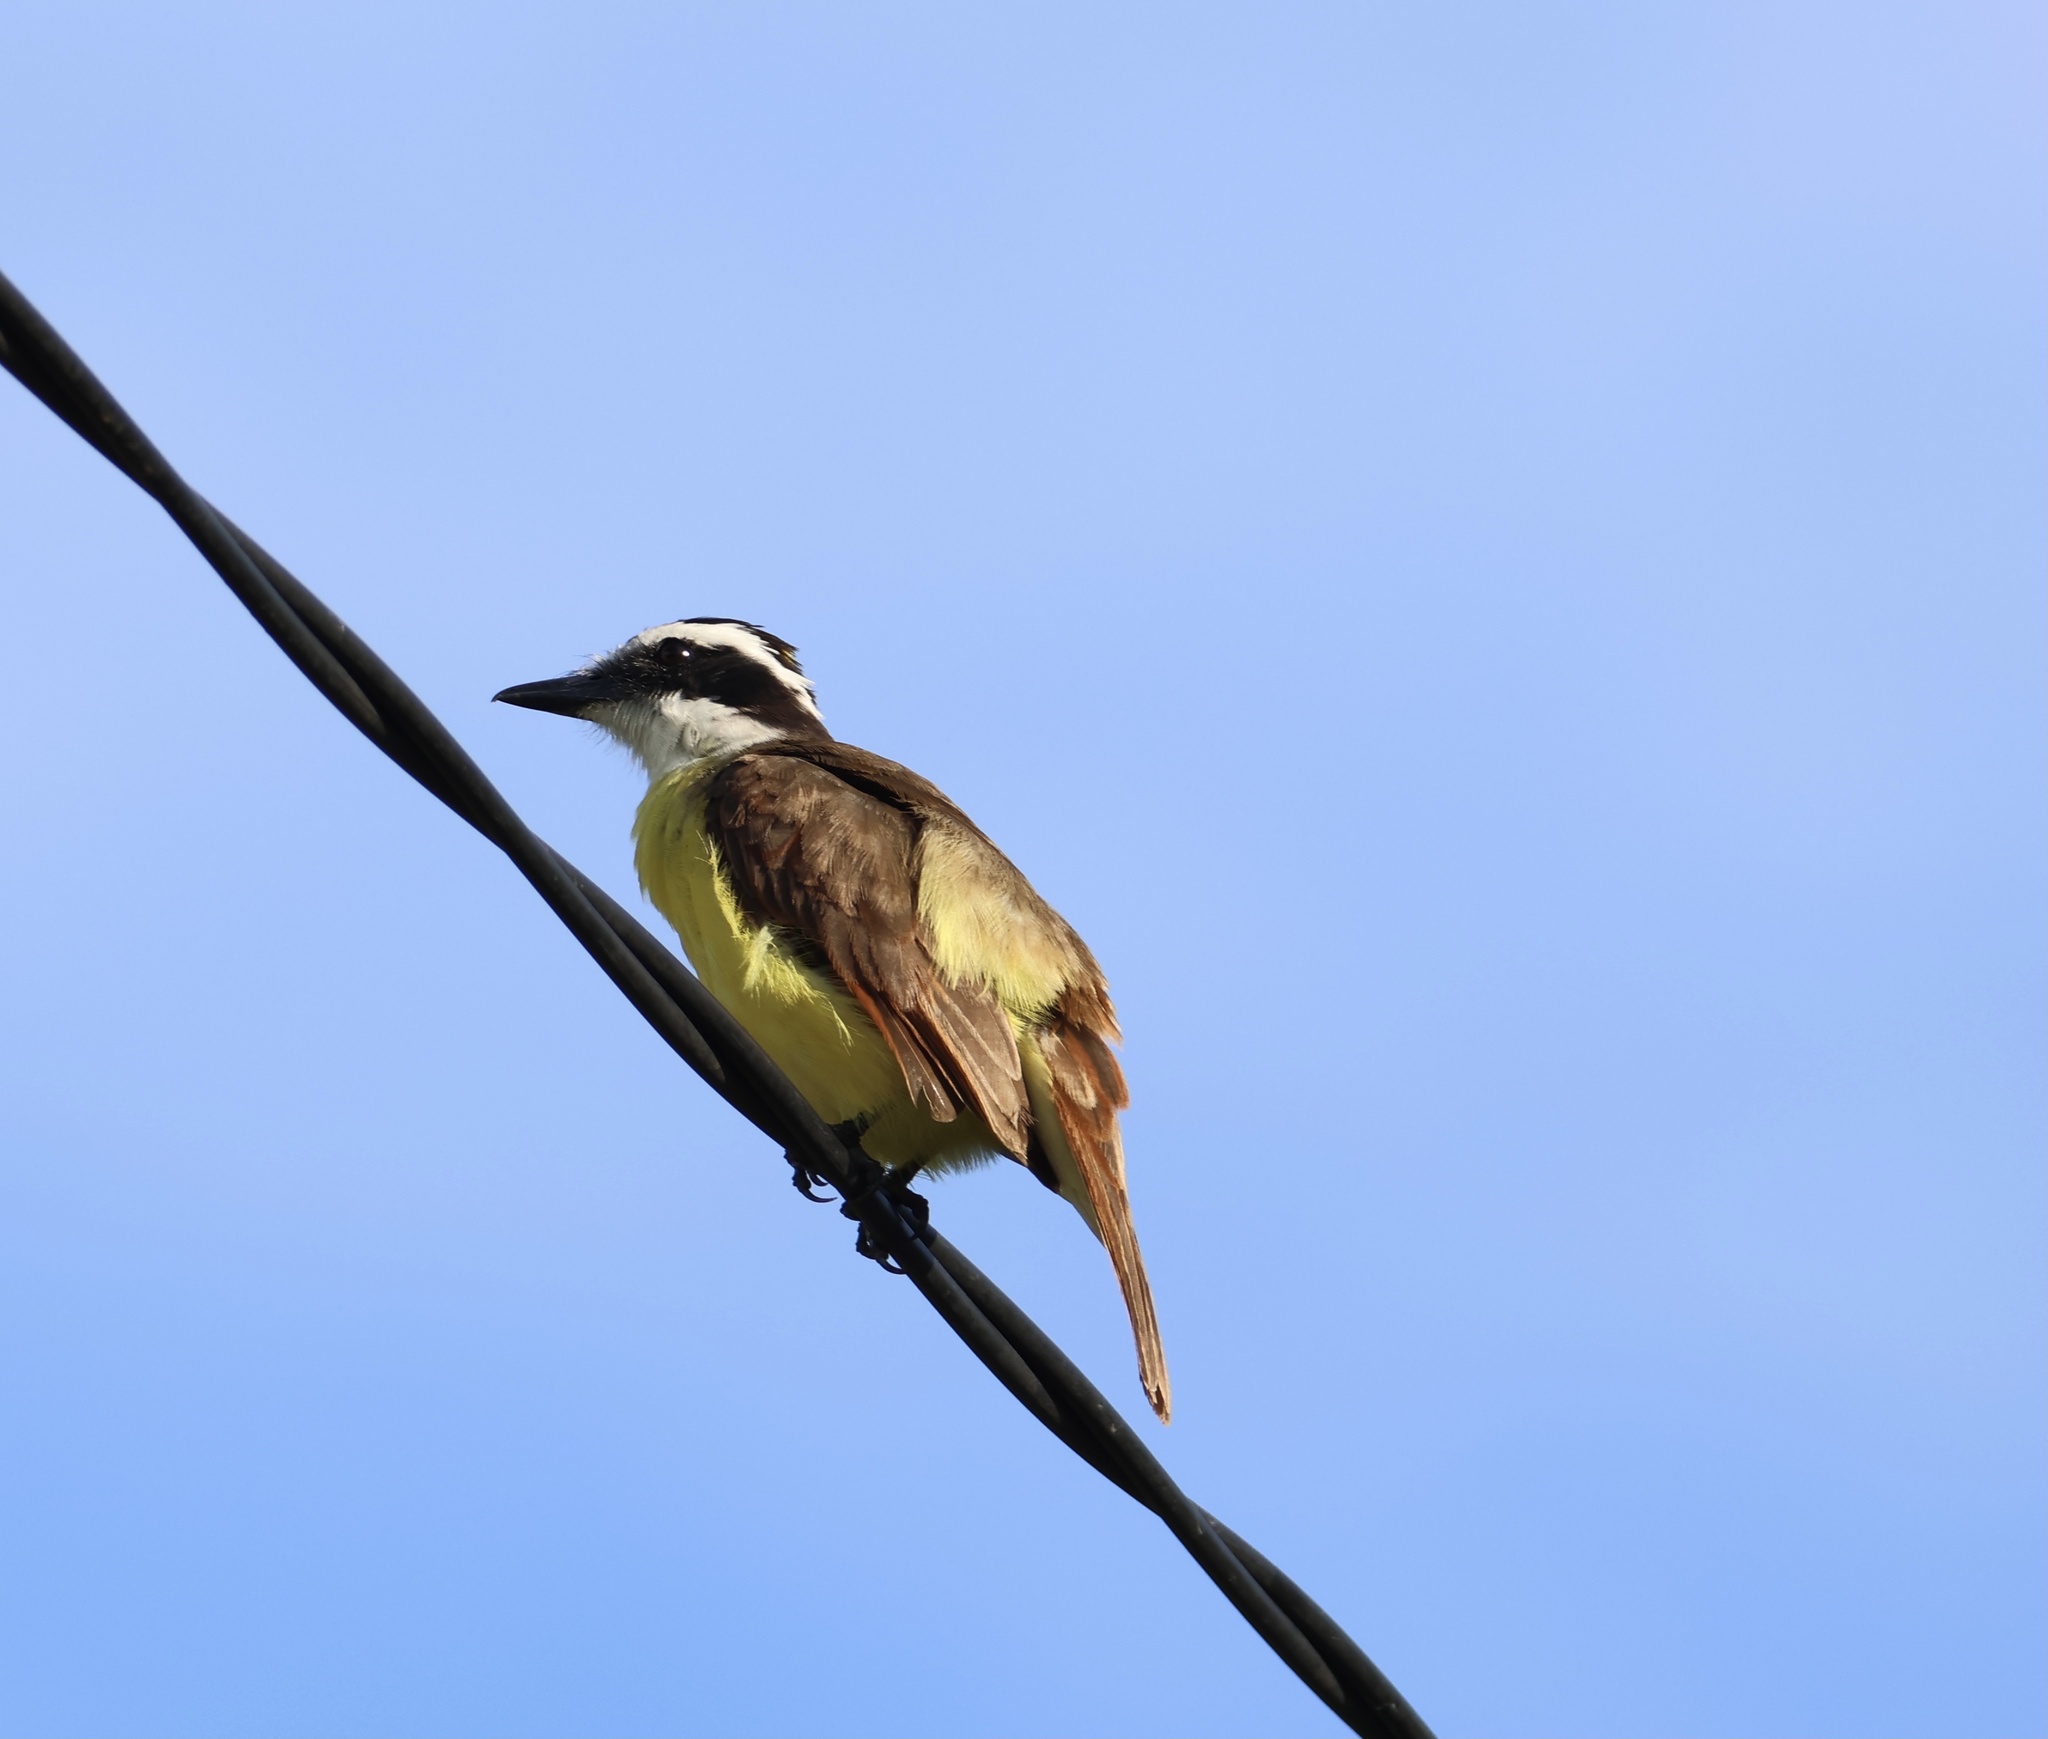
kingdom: Animalia
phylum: Chordata
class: Aves
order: Passeriformes
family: Tyrannidae
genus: Pitangus
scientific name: Pitangus sulphuratus
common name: Great kiskadee
